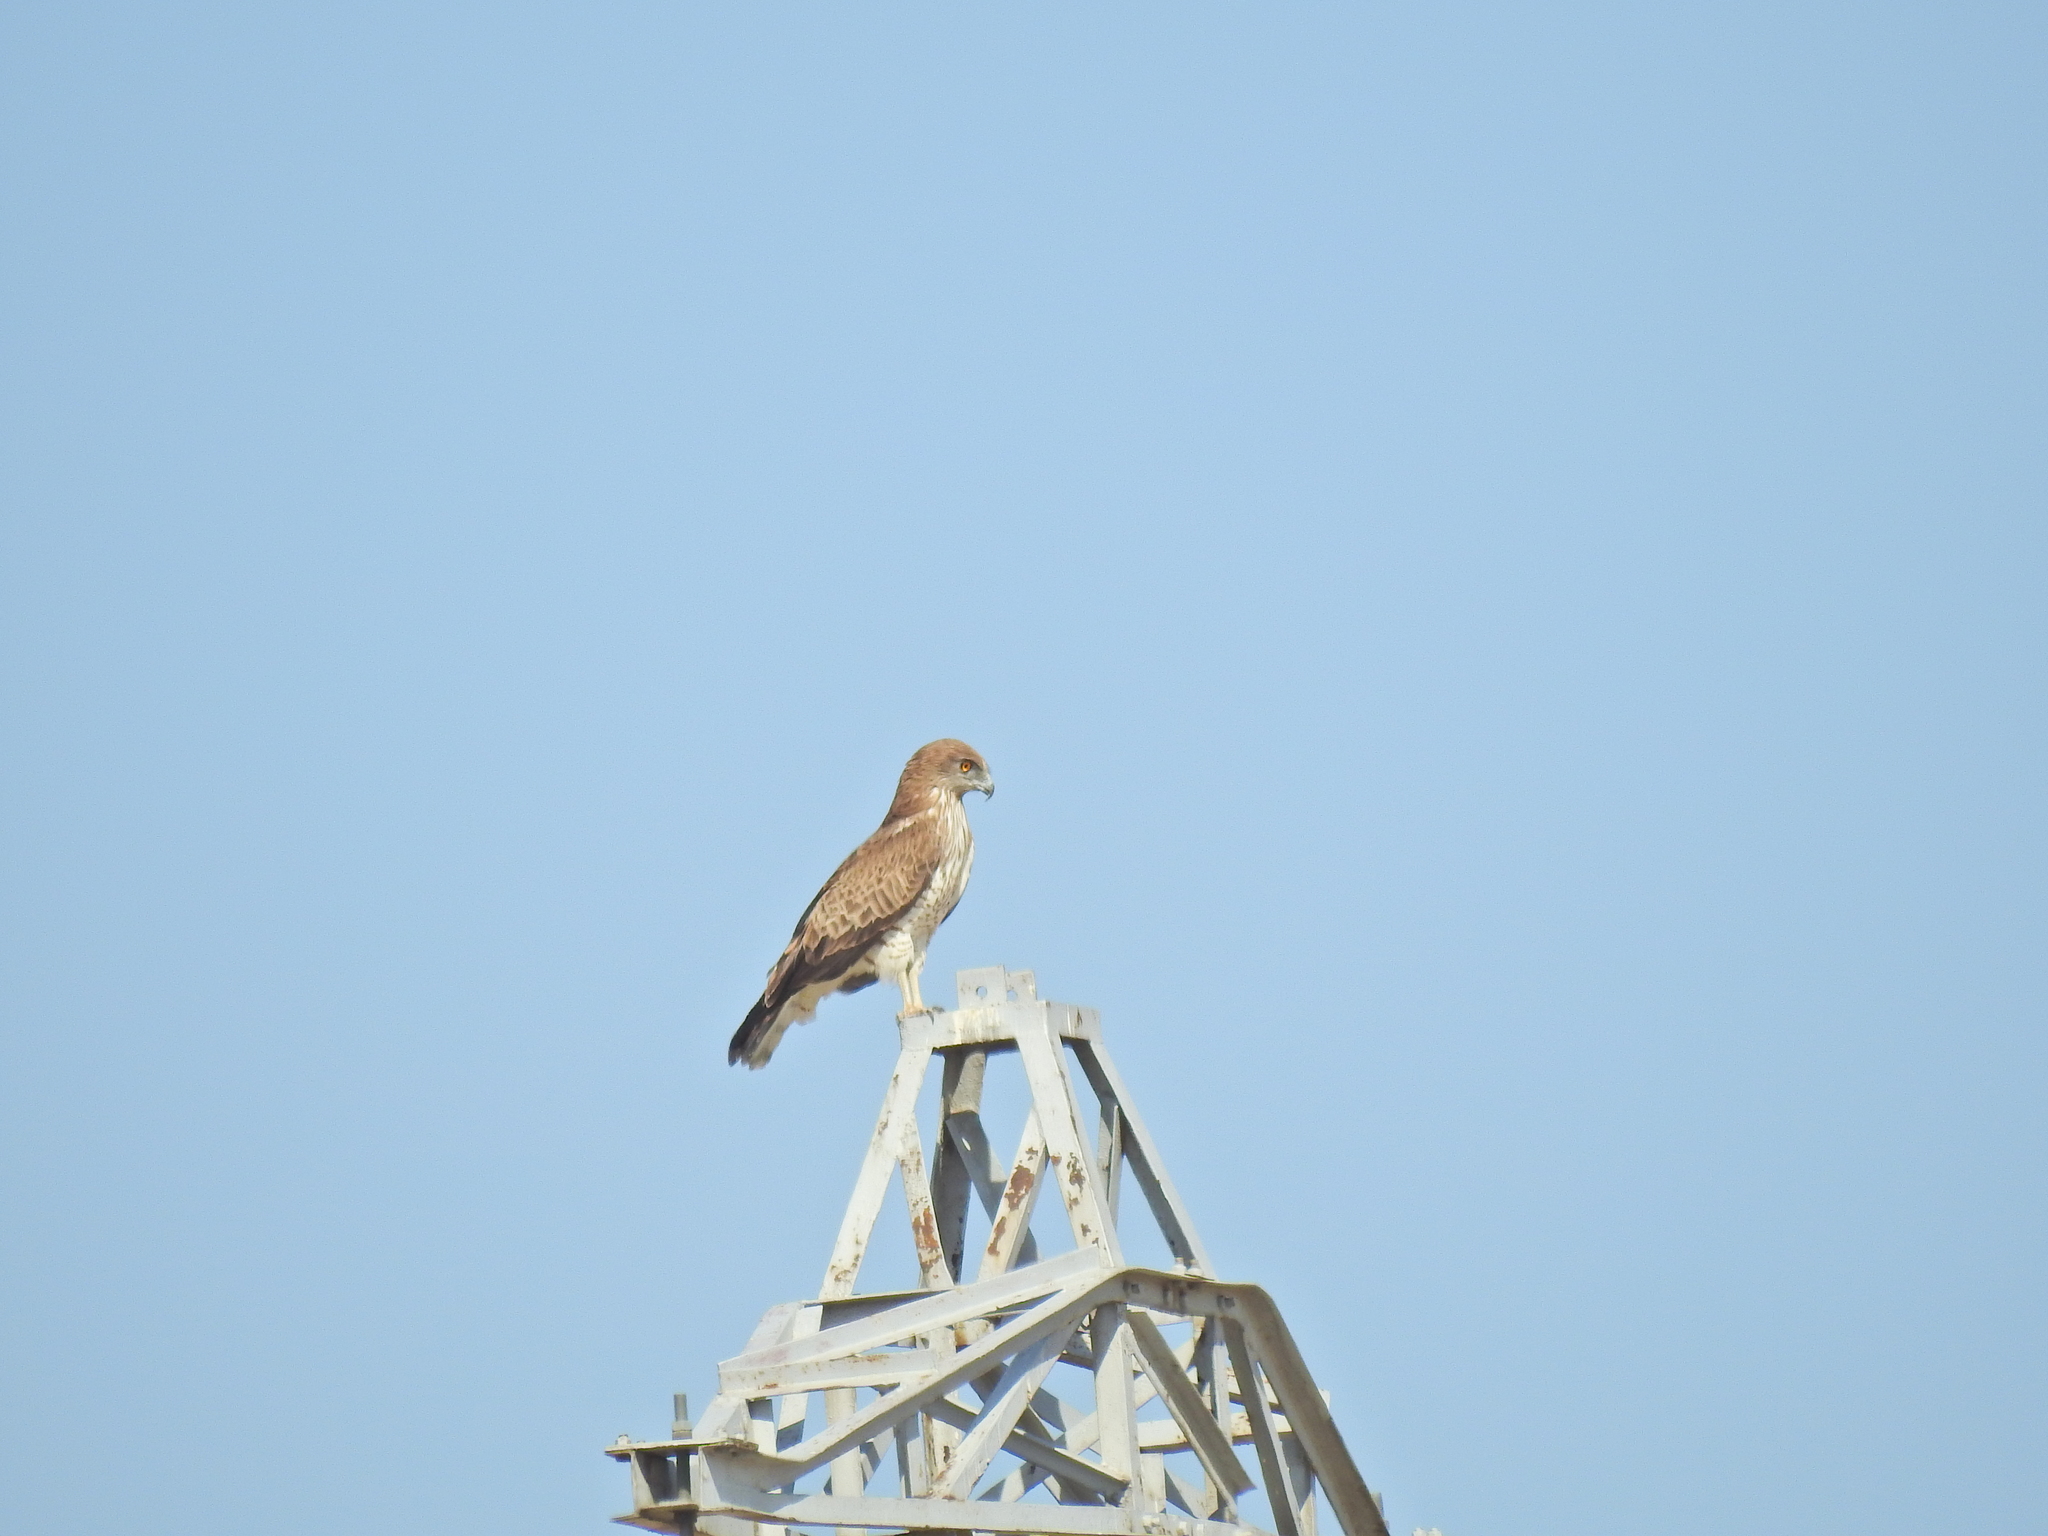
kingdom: Animalia
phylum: Chordata
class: Aves
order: Accipitriformes
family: Accipitridae
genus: Circaetus
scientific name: Circaetus gallicus
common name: Short-toed snake eagle
